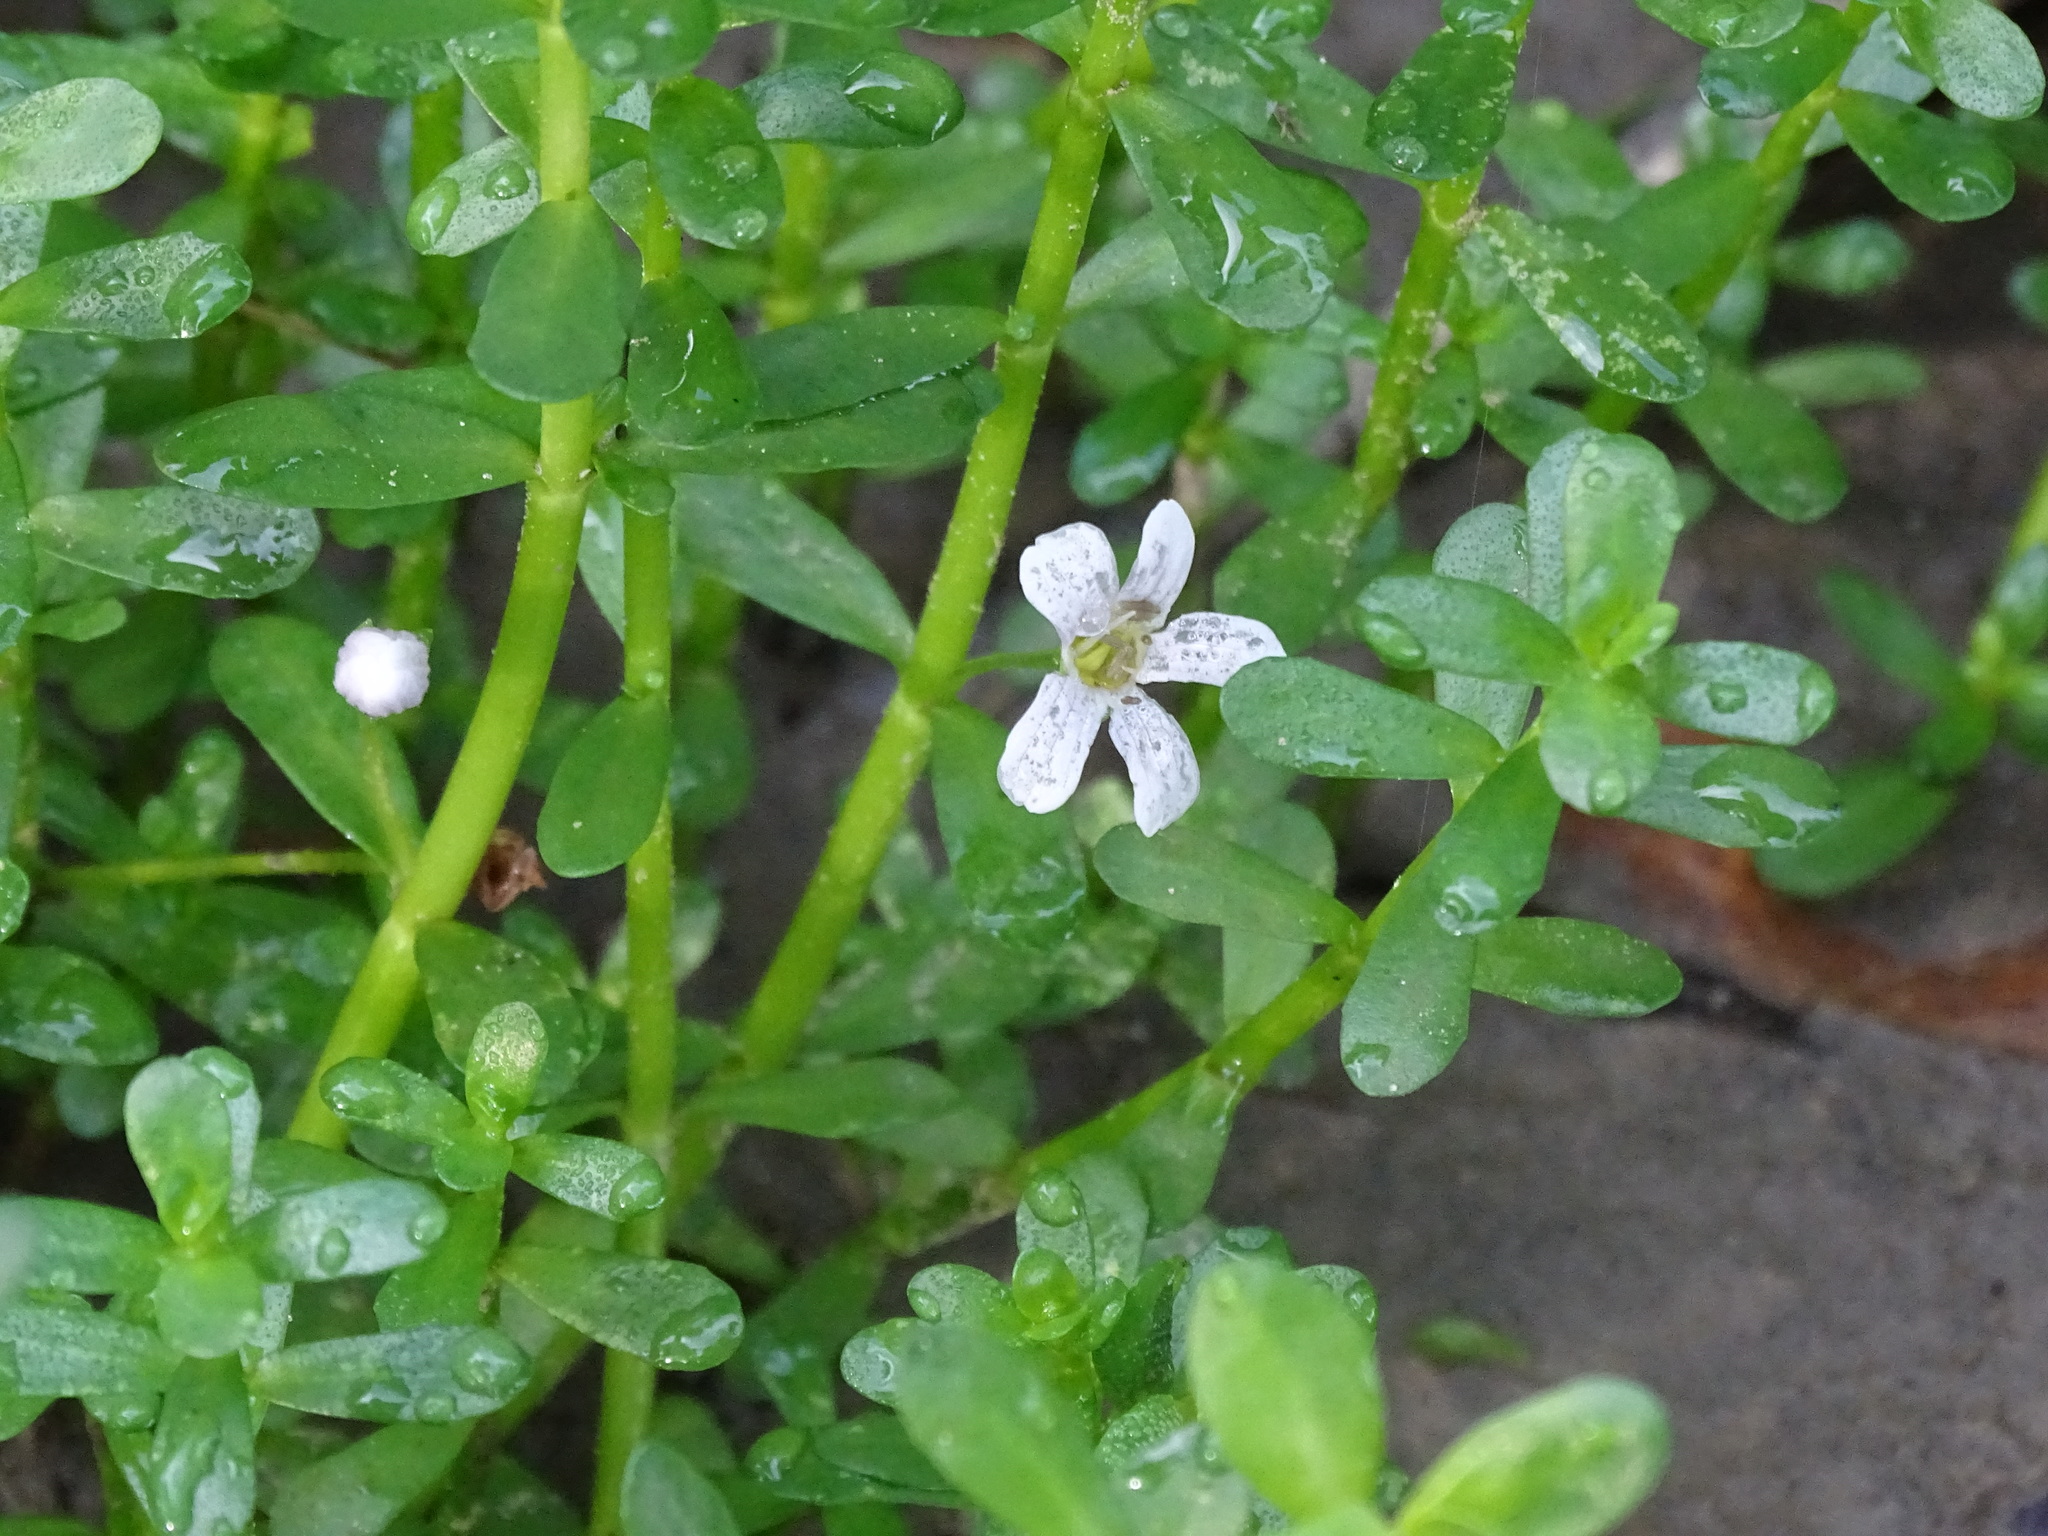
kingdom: Plantae
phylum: Tracheophyta
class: Magnoliopsida
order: Lamiales
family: Plantaginaceae
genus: Bacopa
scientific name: Bacopa monnieri
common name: Indian-pennywort
